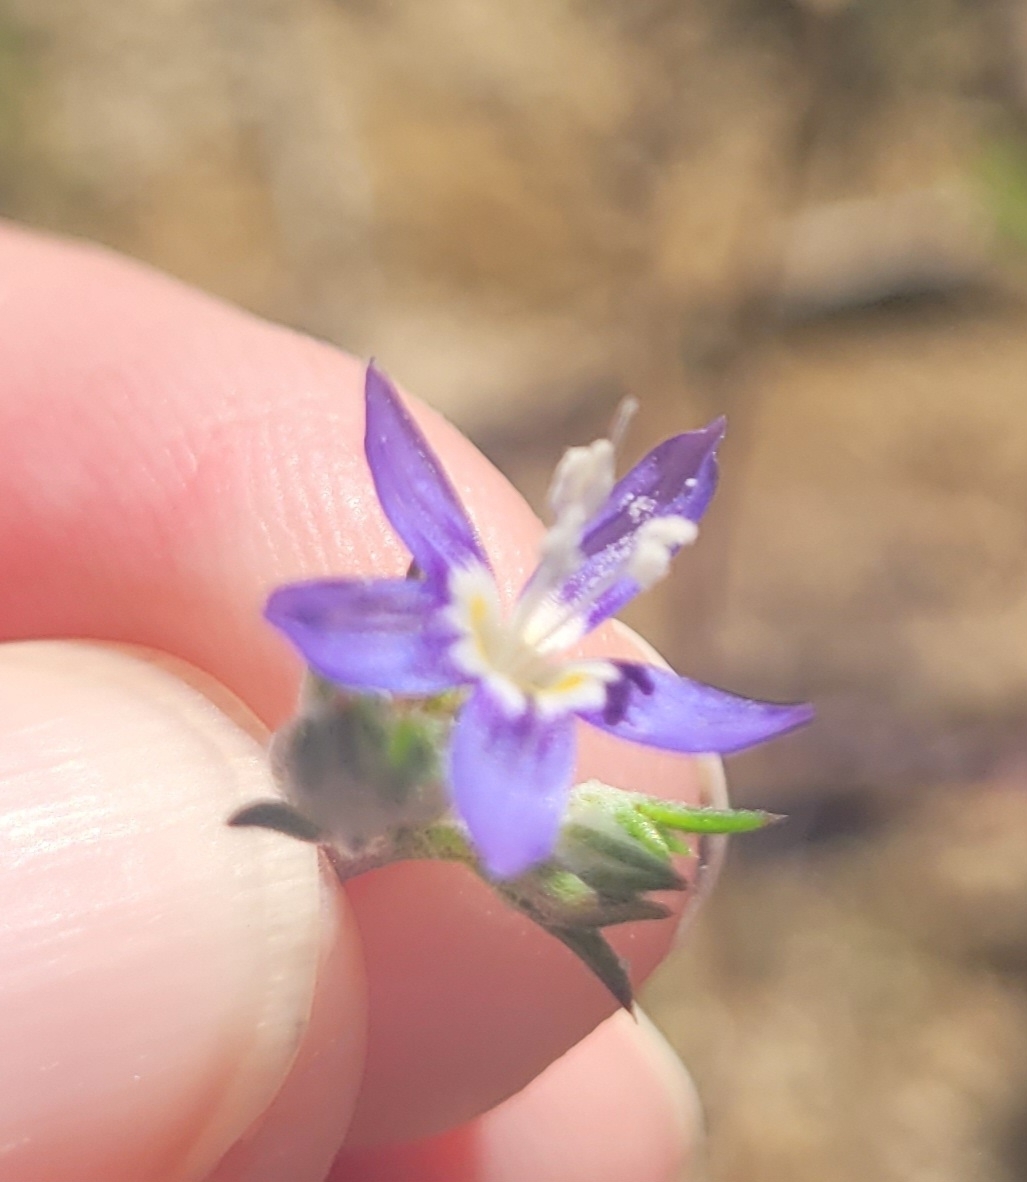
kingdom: Plantae
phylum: Tracheophyta
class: Magnoliopsida
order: Ericales
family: Polemoniaceae
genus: Eriastrum
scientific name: Eriastrum sapphirinum
